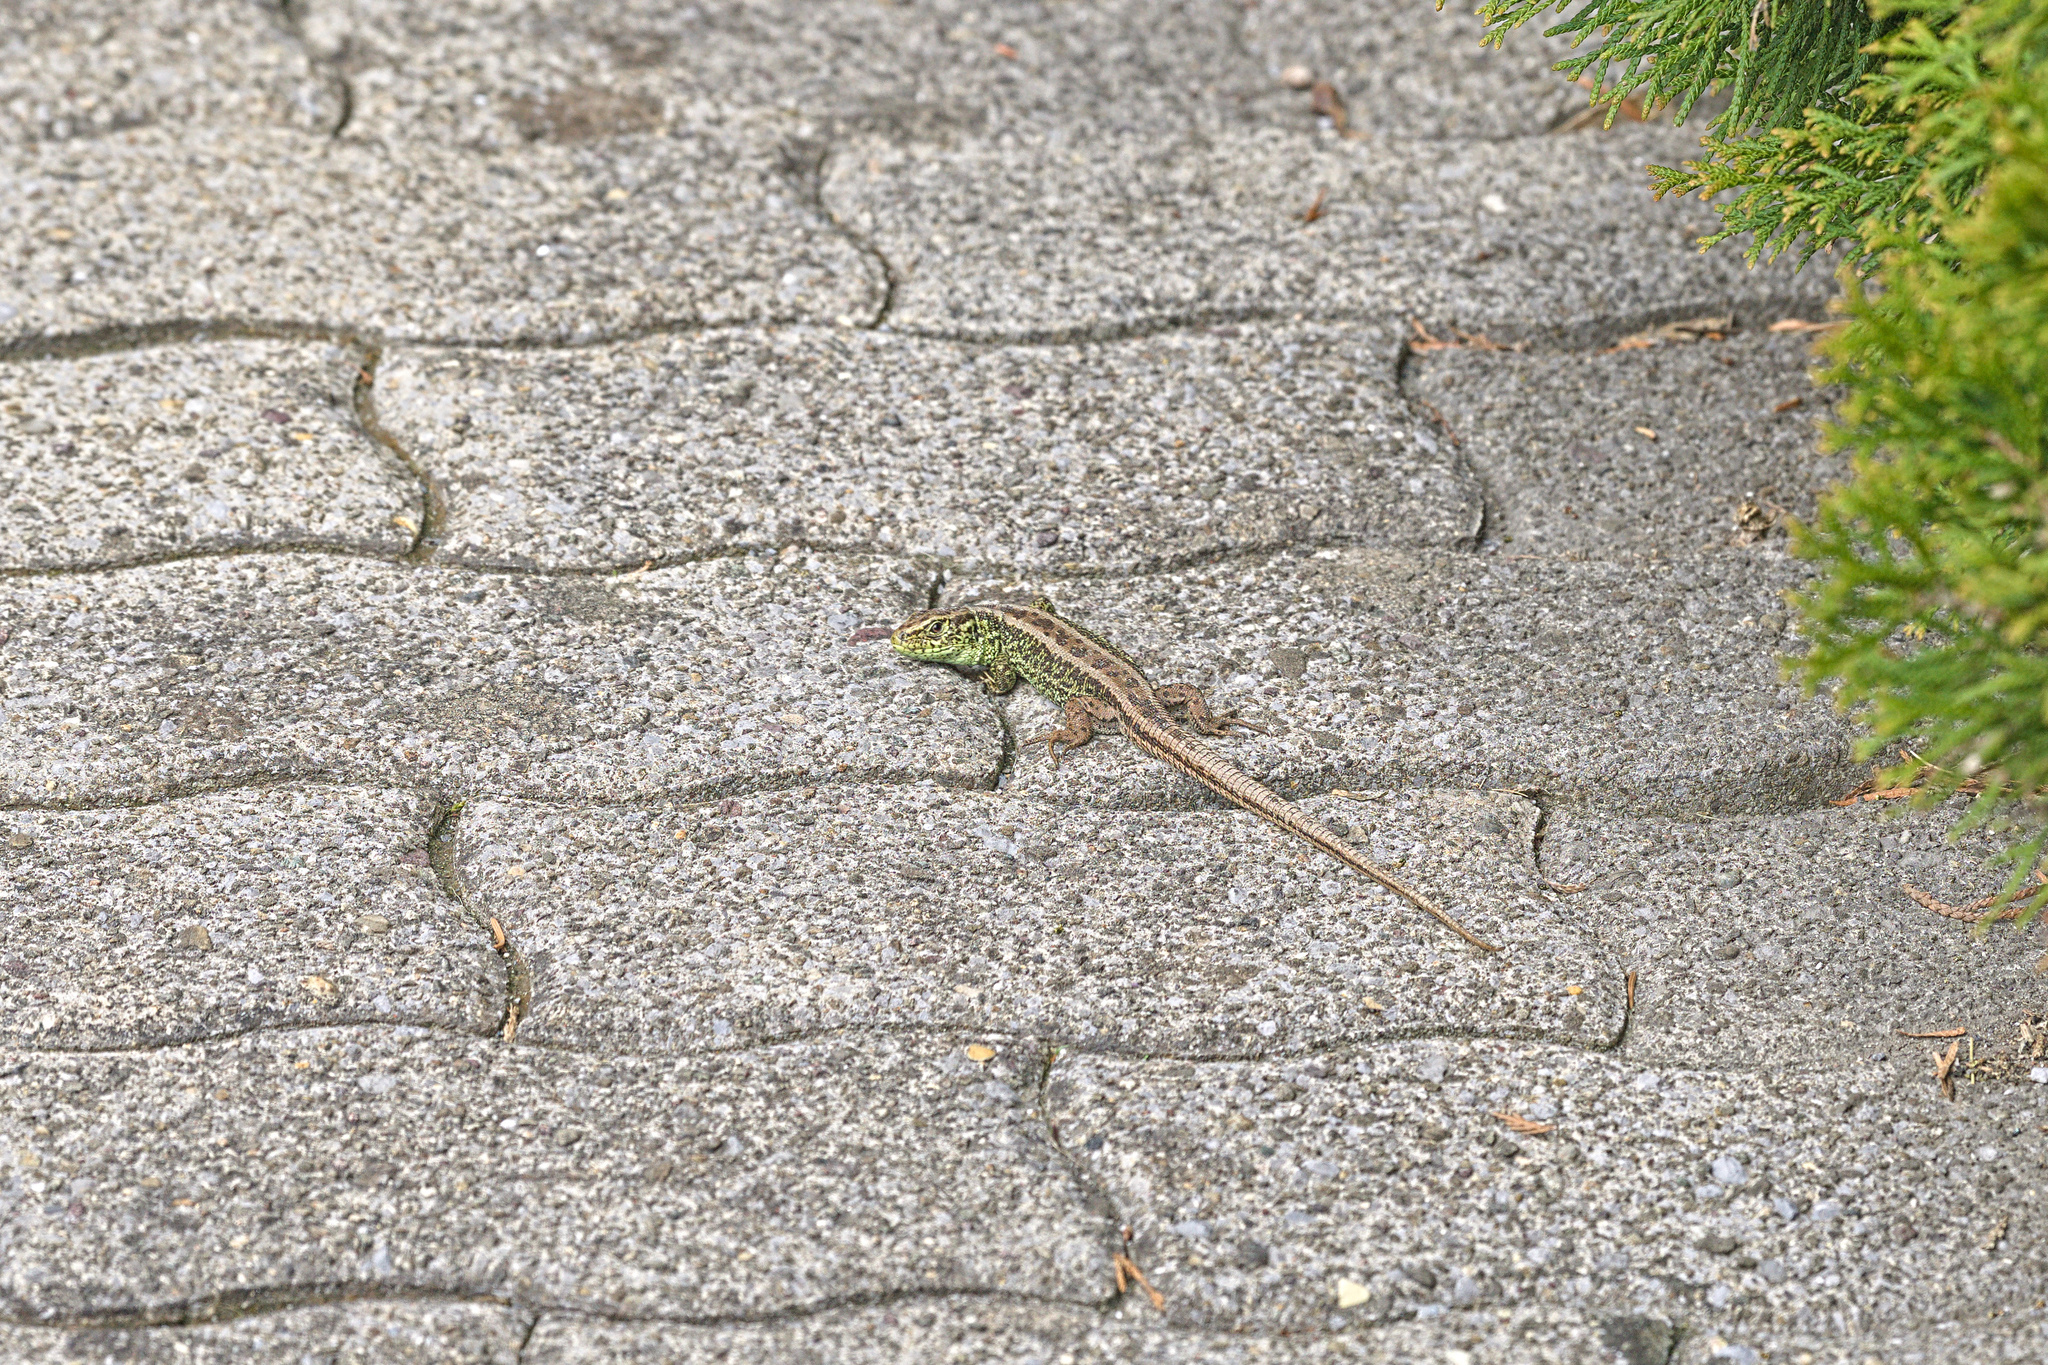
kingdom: Animalia
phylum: Chordata
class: Squamata
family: Lacertidae
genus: Lacerta
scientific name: Lacerta agilis
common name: Sand lizard
